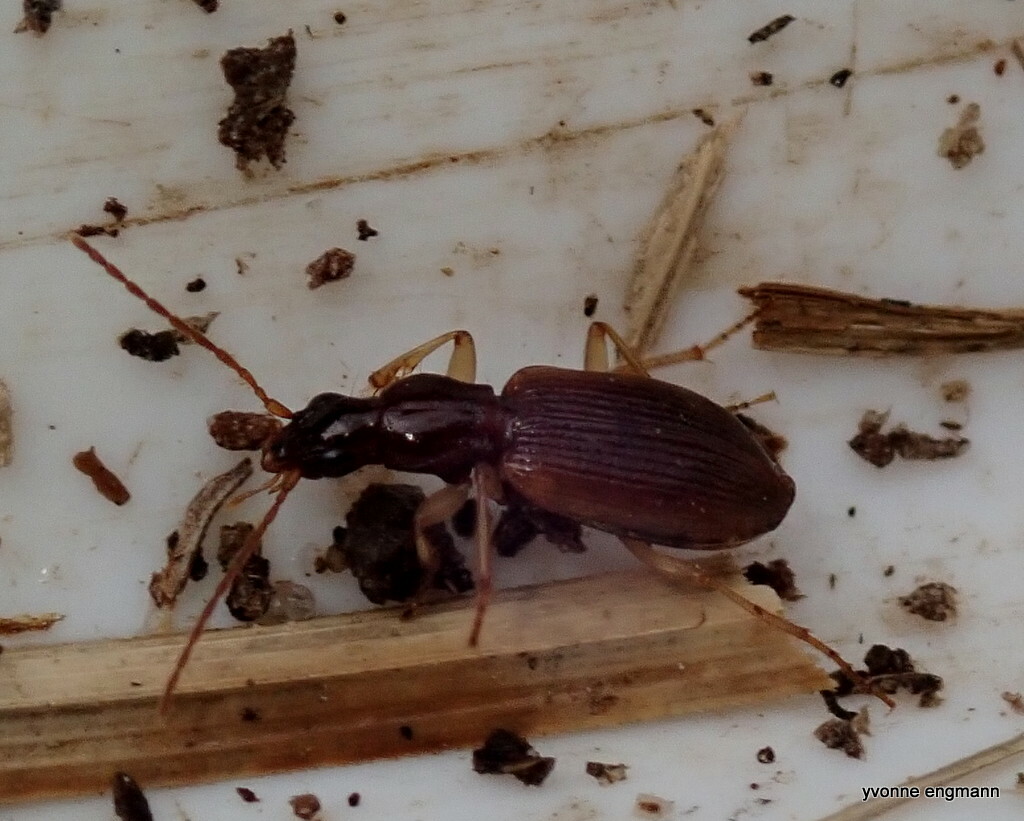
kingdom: Animalia
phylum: Arthropoda
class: Insecta
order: Coleoptera
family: Carabidae
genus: Oxypselaphus
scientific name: Oxypselaphus obscurus
